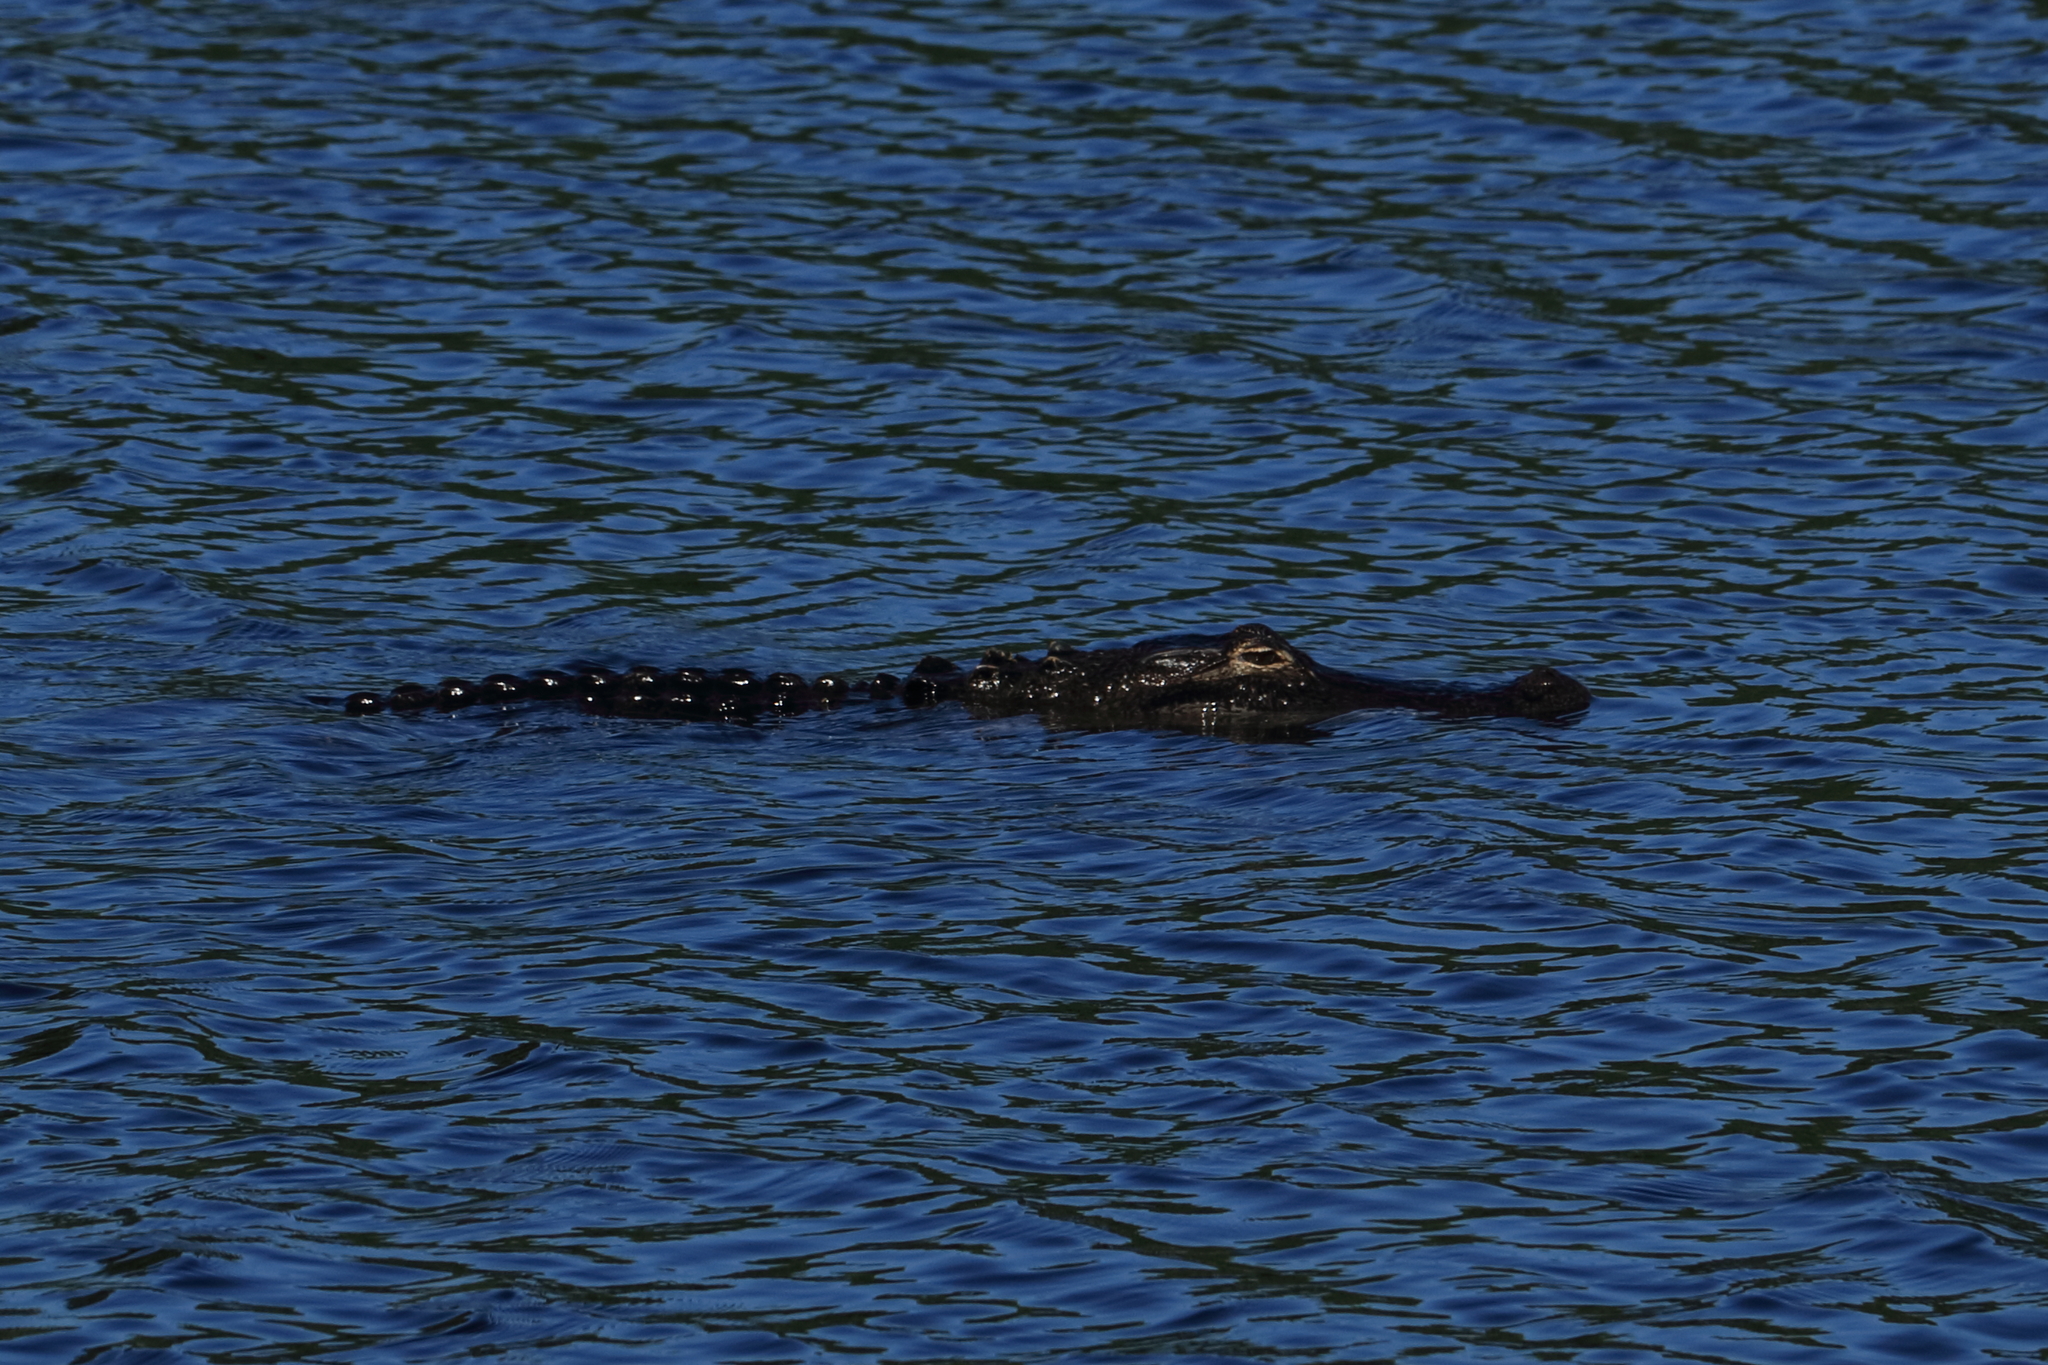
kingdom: Animalia
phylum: Chordata
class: Crocodylia
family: Alligatoridae
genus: Alligator
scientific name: Alligator mississippiensis
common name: American alligator
